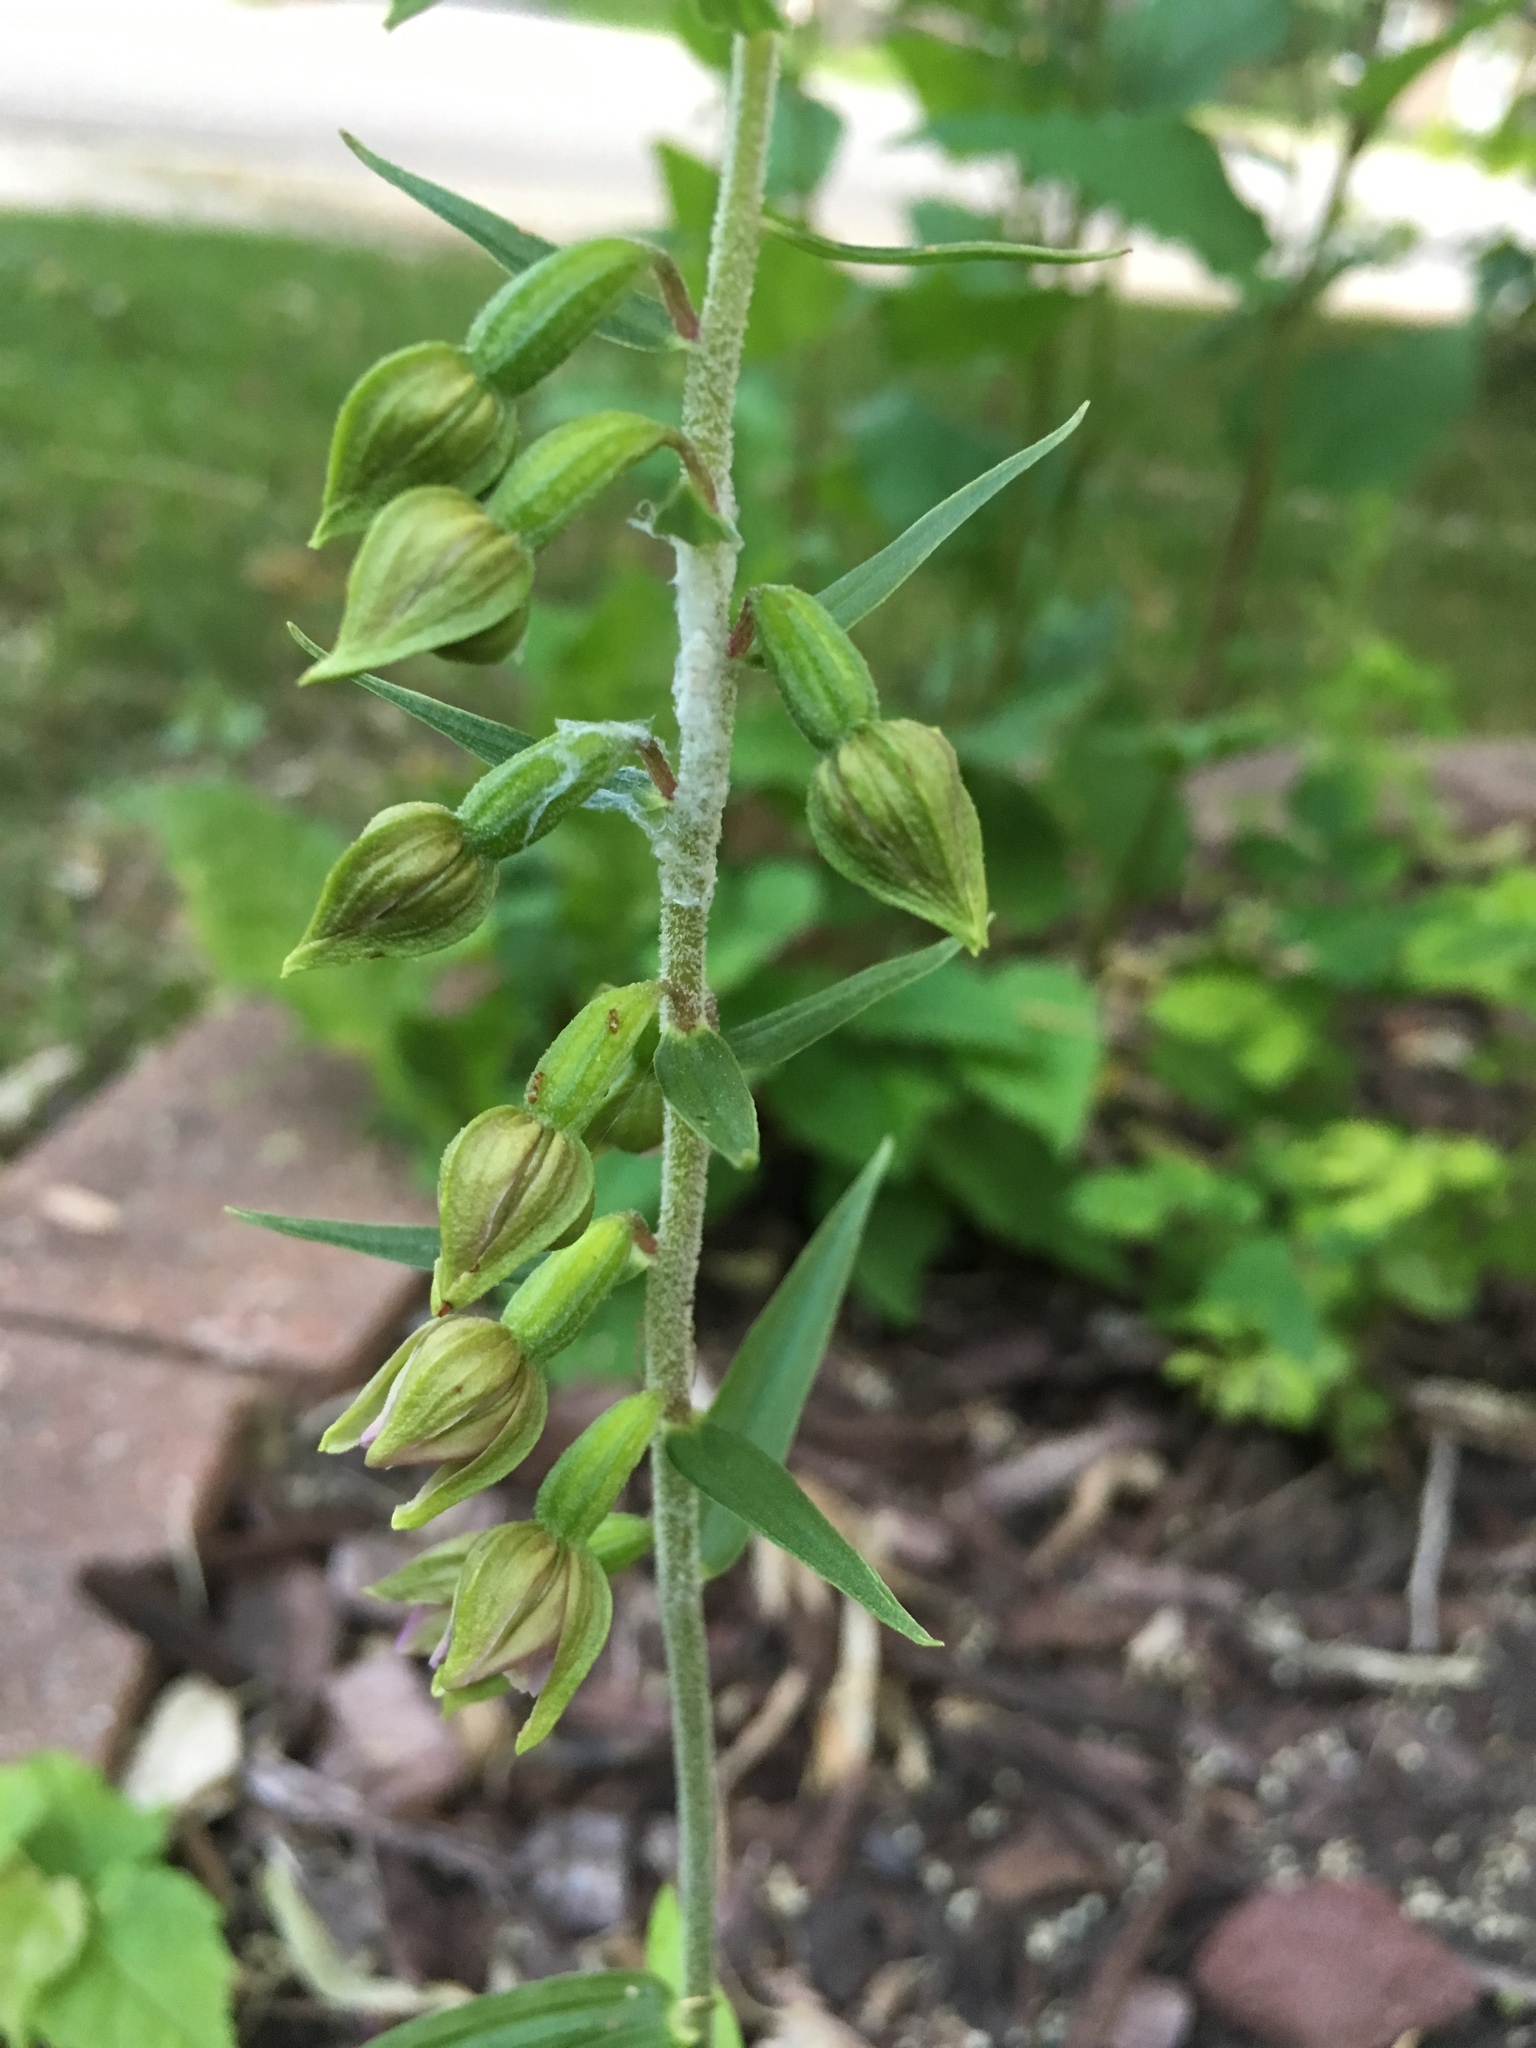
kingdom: Plantae
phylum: Tracheophyta
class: Liliopsida
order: Asparagales
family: Orchidaceae
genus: Epipactis
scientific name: Epipactis helleborine
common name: Broad-leaved helleborine
